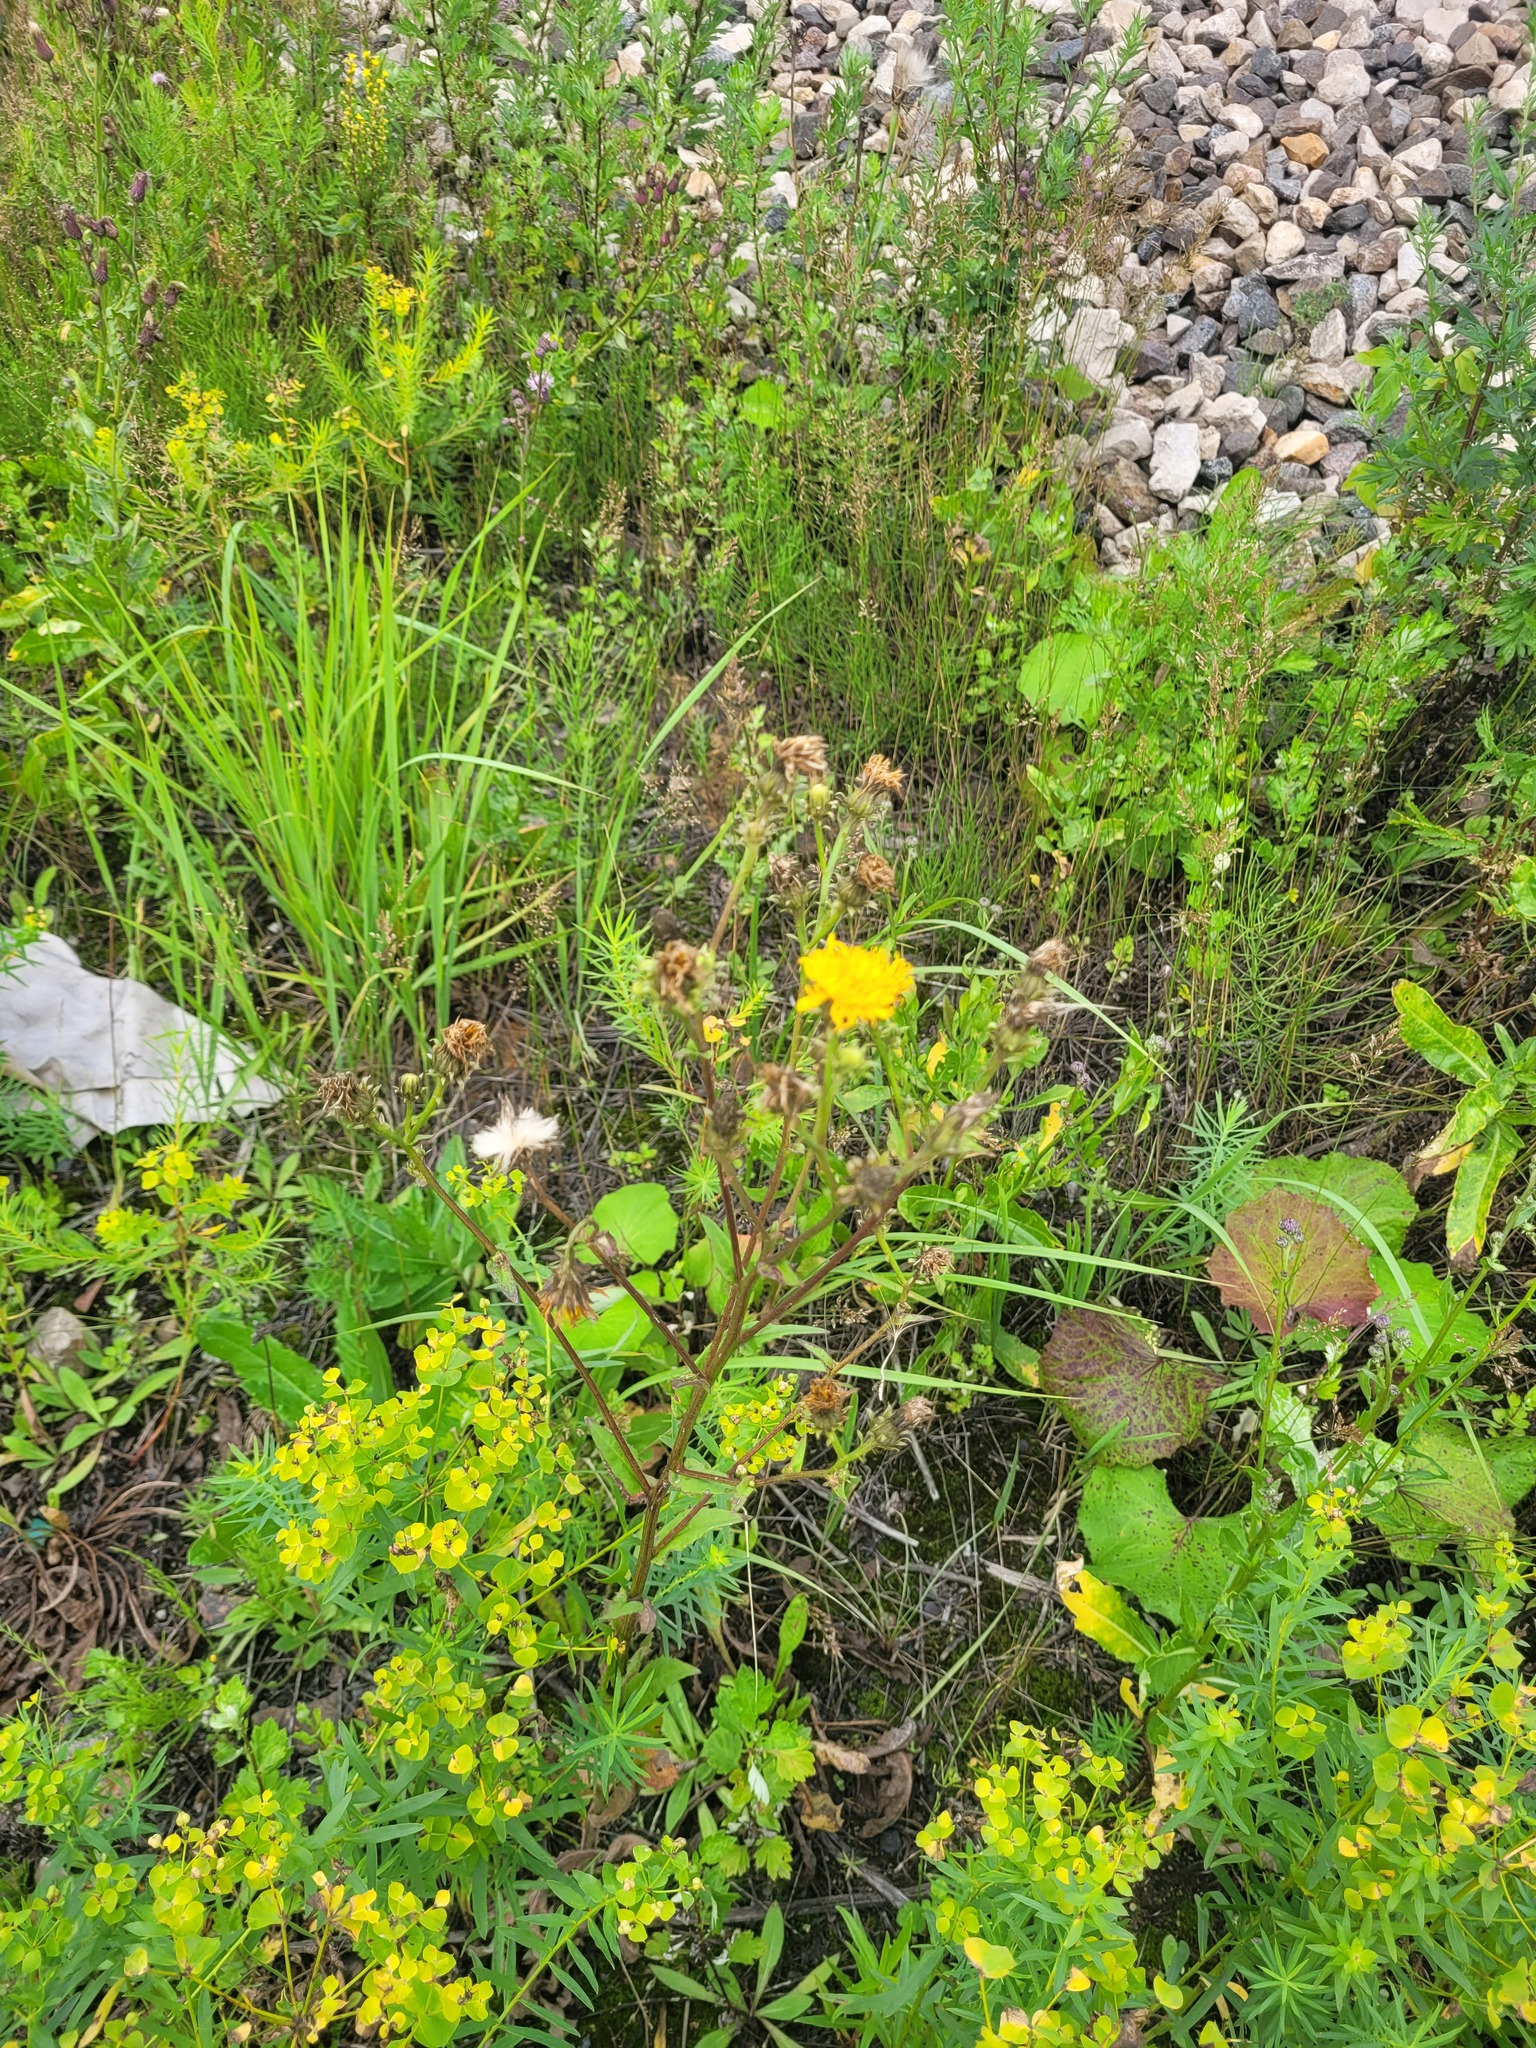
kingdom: Plantae
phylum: Tracheophyta
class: Magnoliopsida
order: Asterales
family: Asteraceae
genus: Picris
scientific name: Picris hieracioides
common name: Hawkweed oxtongue
